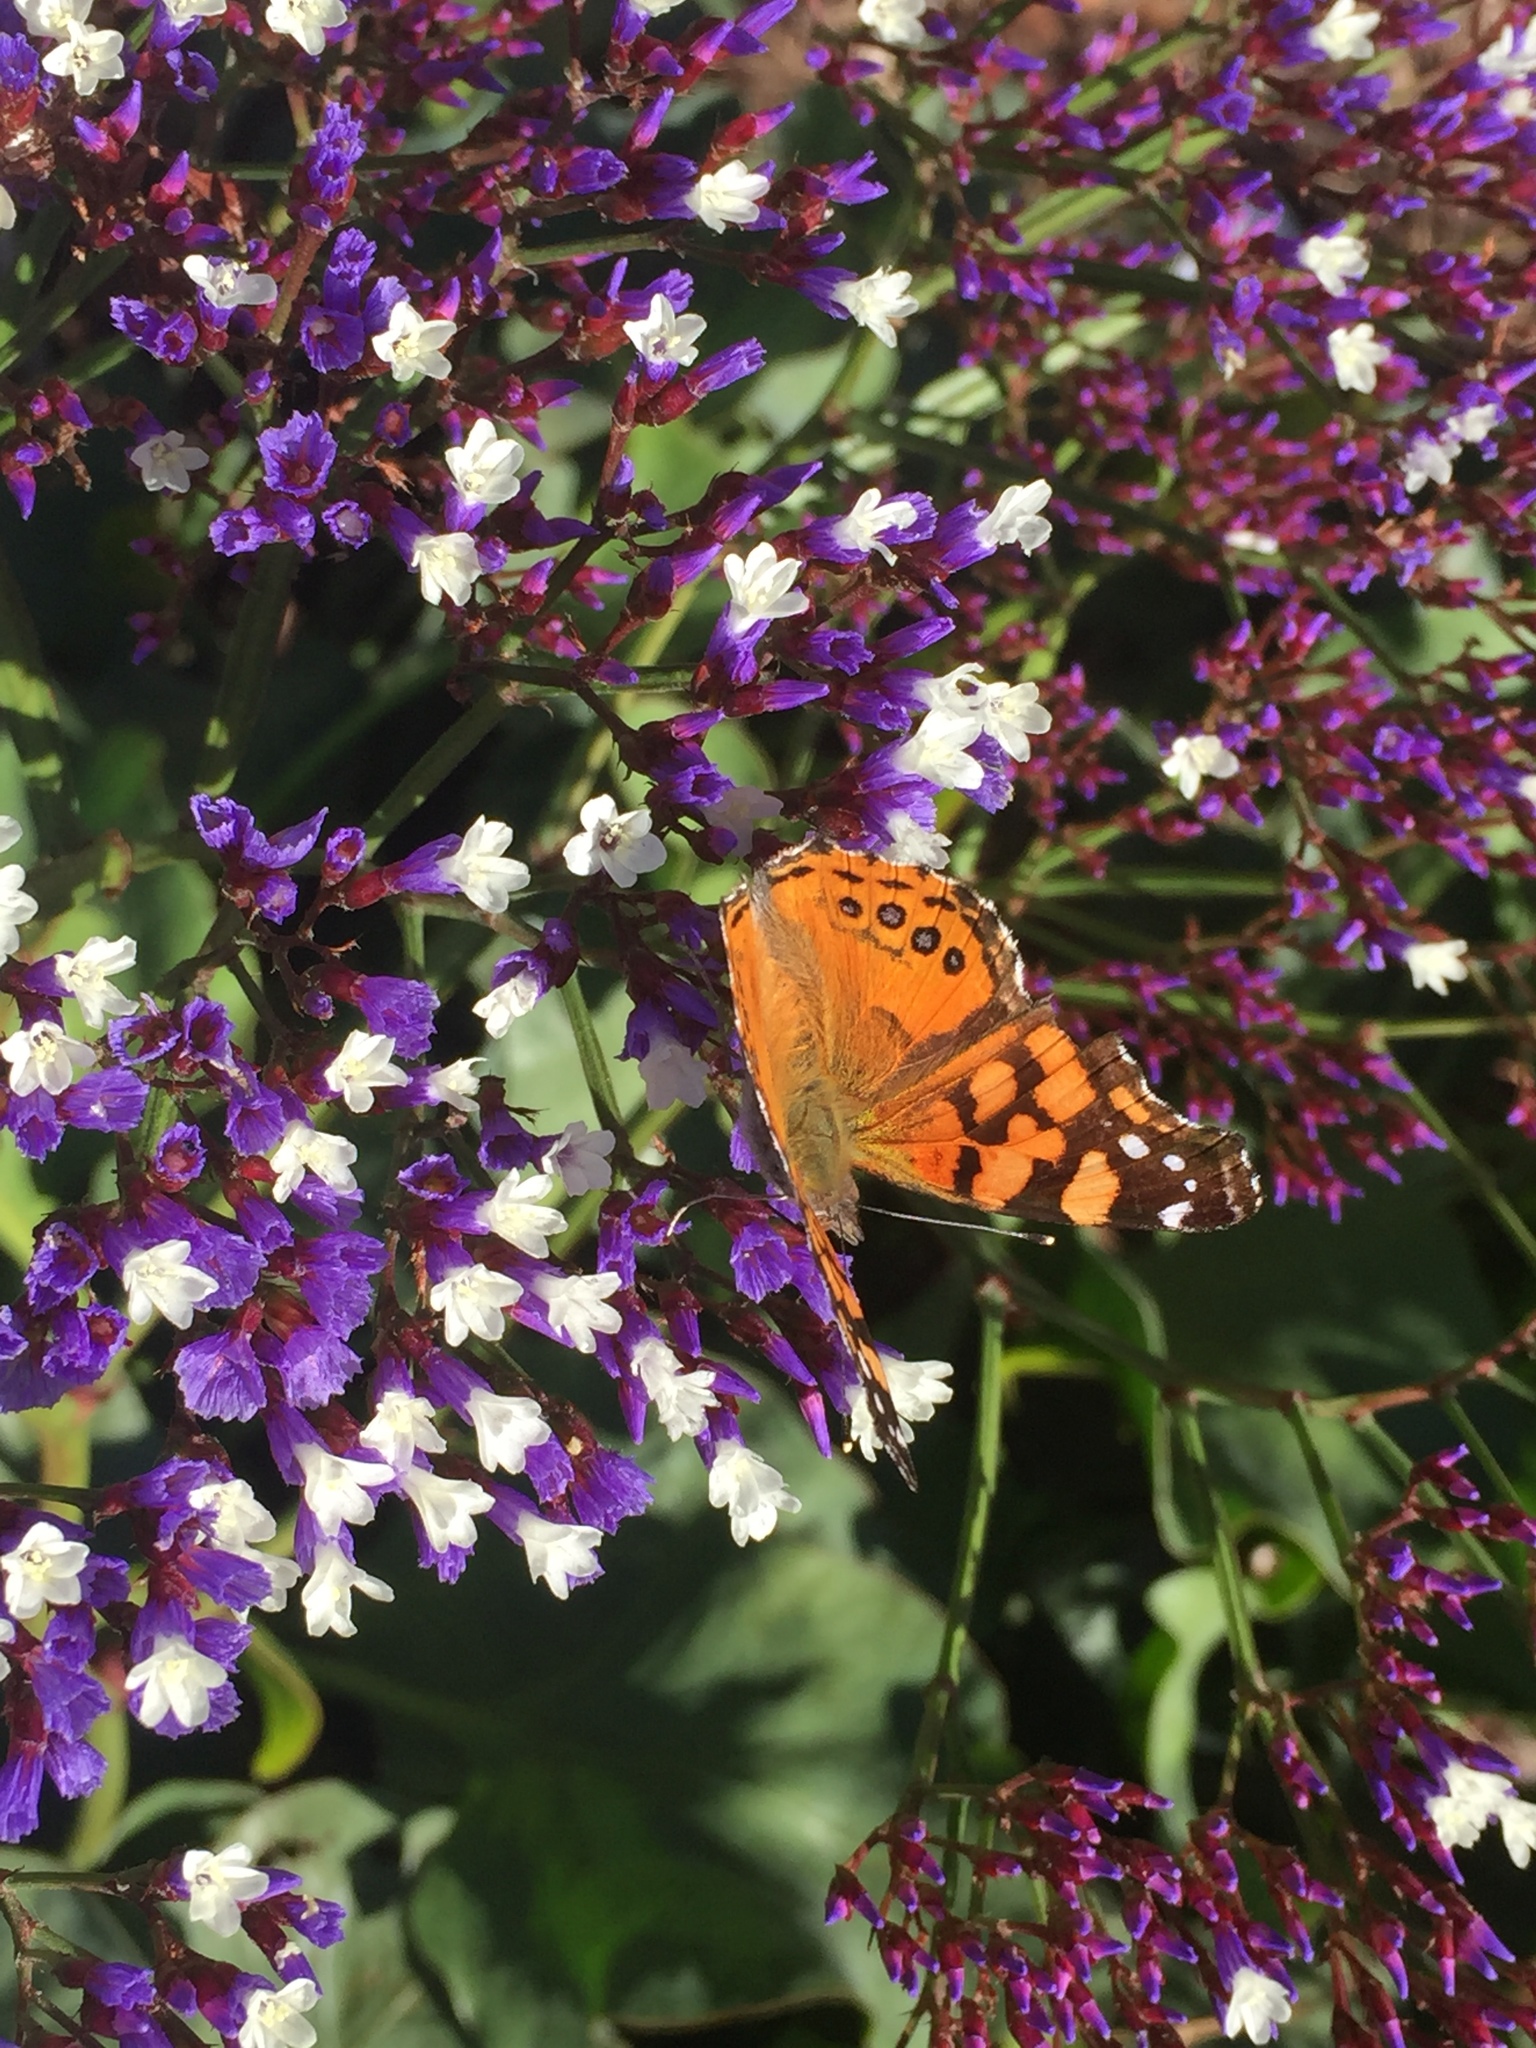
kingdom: Animalia
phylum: Arthropoda
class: Insecta
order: Lepidoptera
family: Nymphalidae
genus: Vanessa
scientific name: Vanessa annabella
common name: West coast lady
